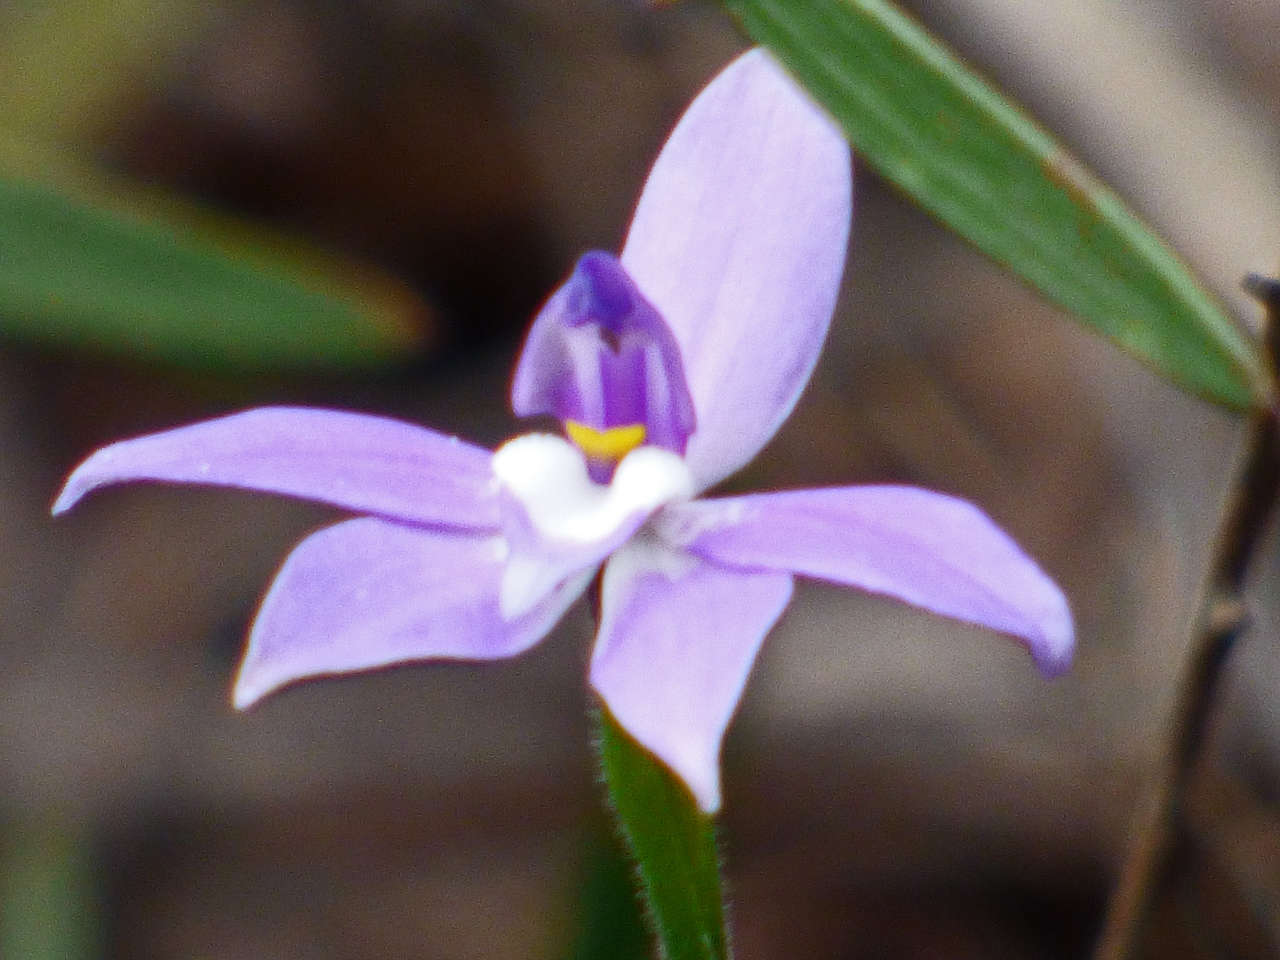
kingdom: Plantae
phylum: Tracheophyta
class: Liliopsida
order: Asparagales
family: Orchidaceae
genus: Caladenia
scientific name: Caladenia major
